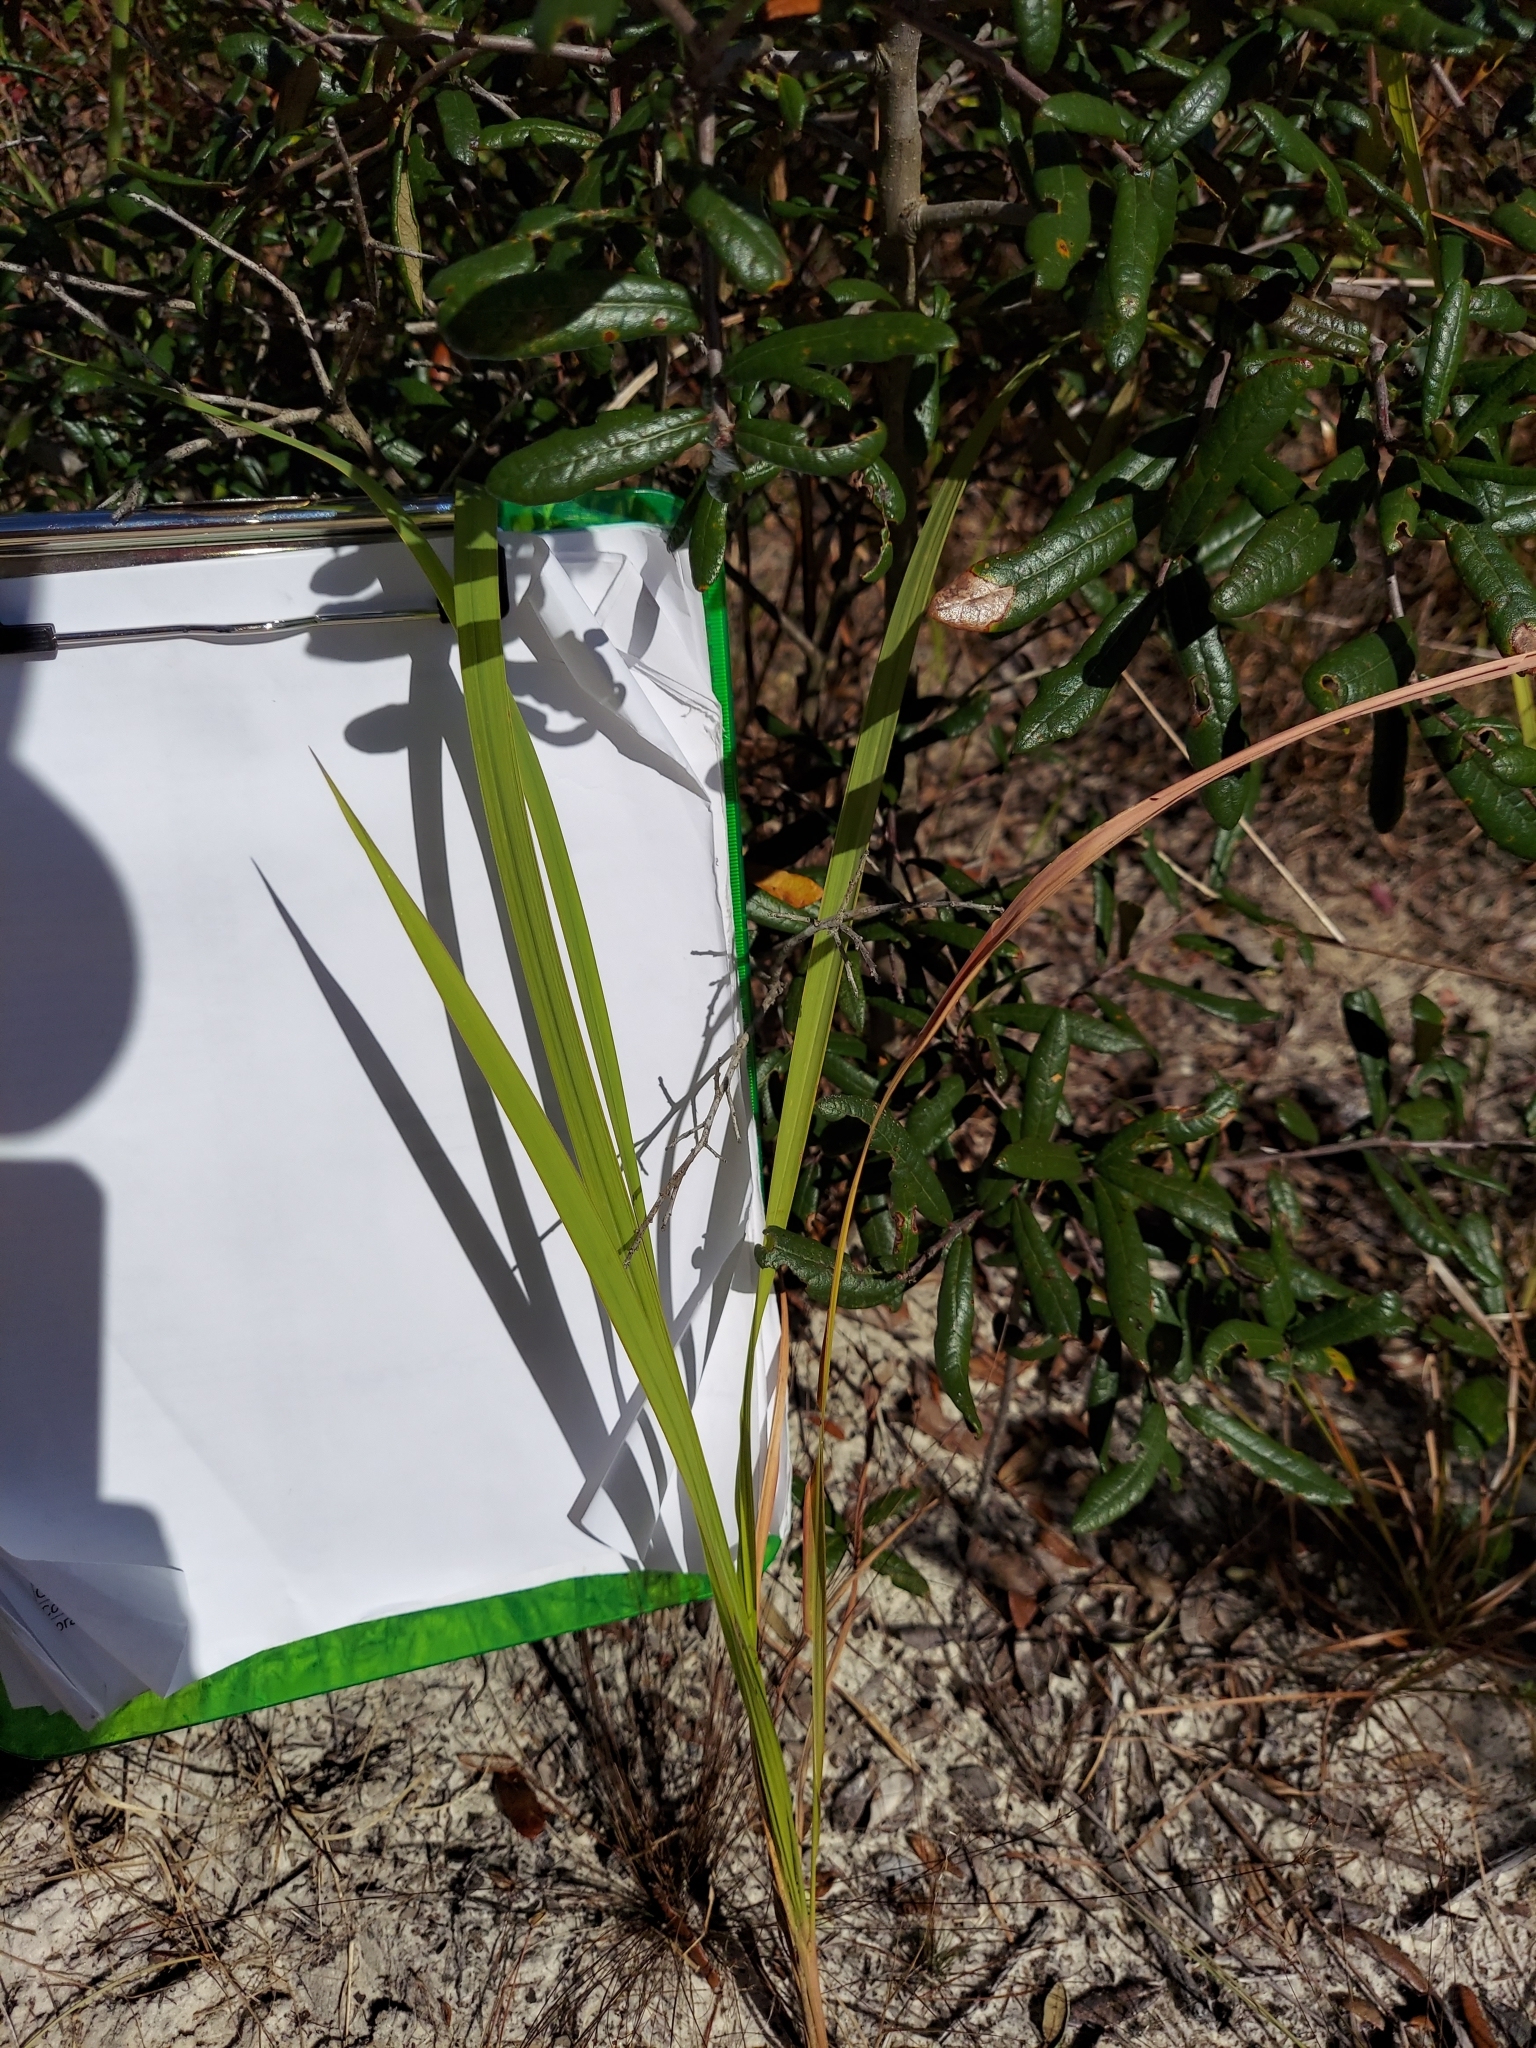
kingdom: Plantae
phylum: Tracheophyta
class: Liliopsida
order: Poales
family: Poaceae
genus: Imperata
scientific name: Imperata cylindrica
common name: Cogongrass
